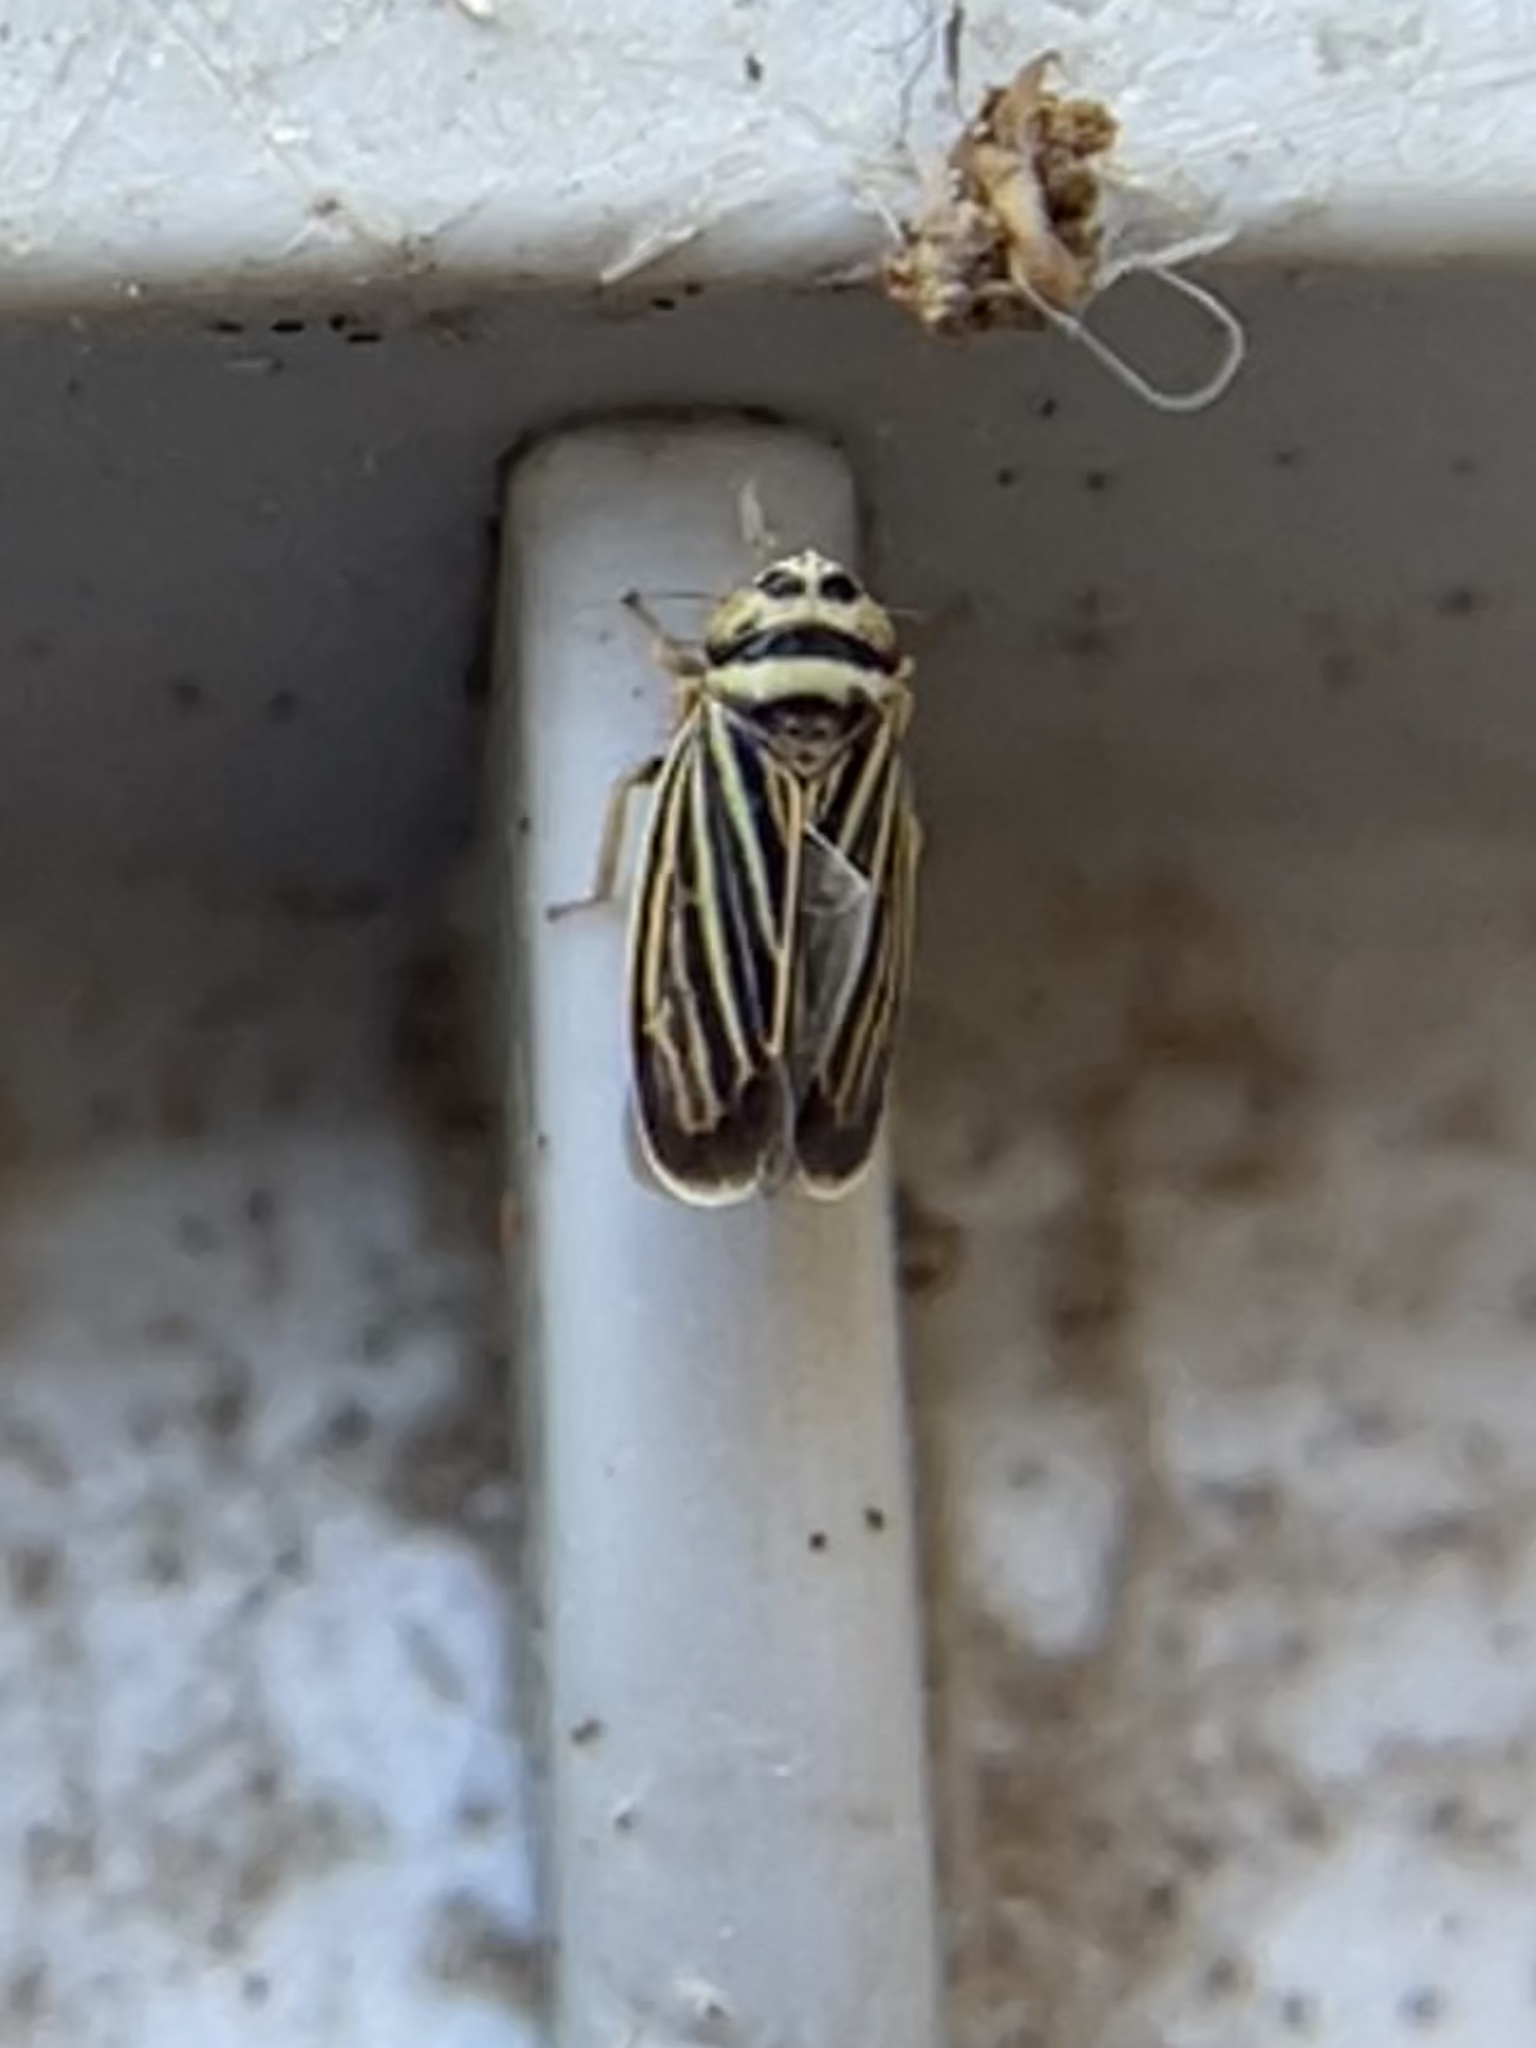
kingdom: Animalia
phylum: Arthropoda
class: Insecta
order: Hemiptera
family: Cicadellidae
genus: Amblysellus
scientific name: Amblysellus curtisii
